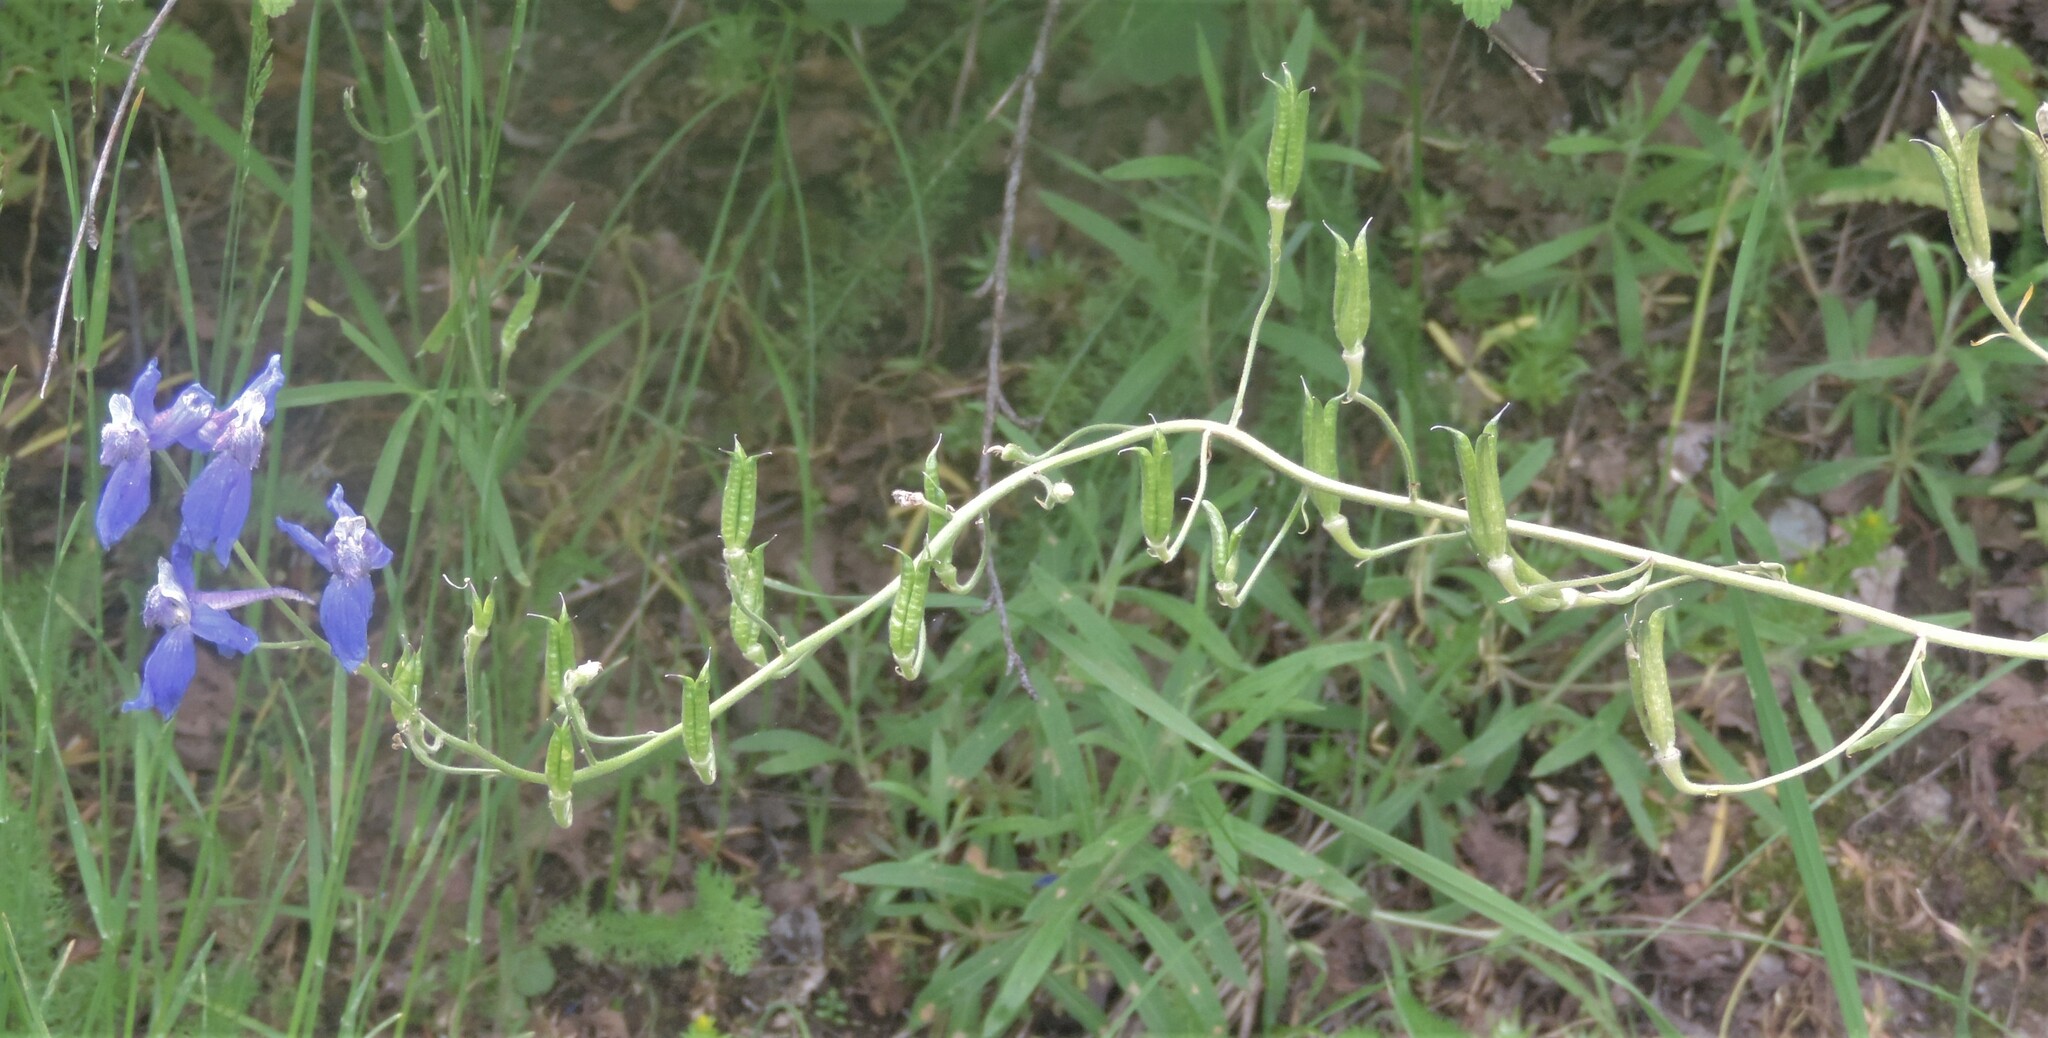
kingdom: Plantae
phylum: Tracheophyta
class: Magnoliopsida
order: Ranunculales
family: Ranunculaceae
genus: Delphinium
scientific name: Delphinium nuttallianum
